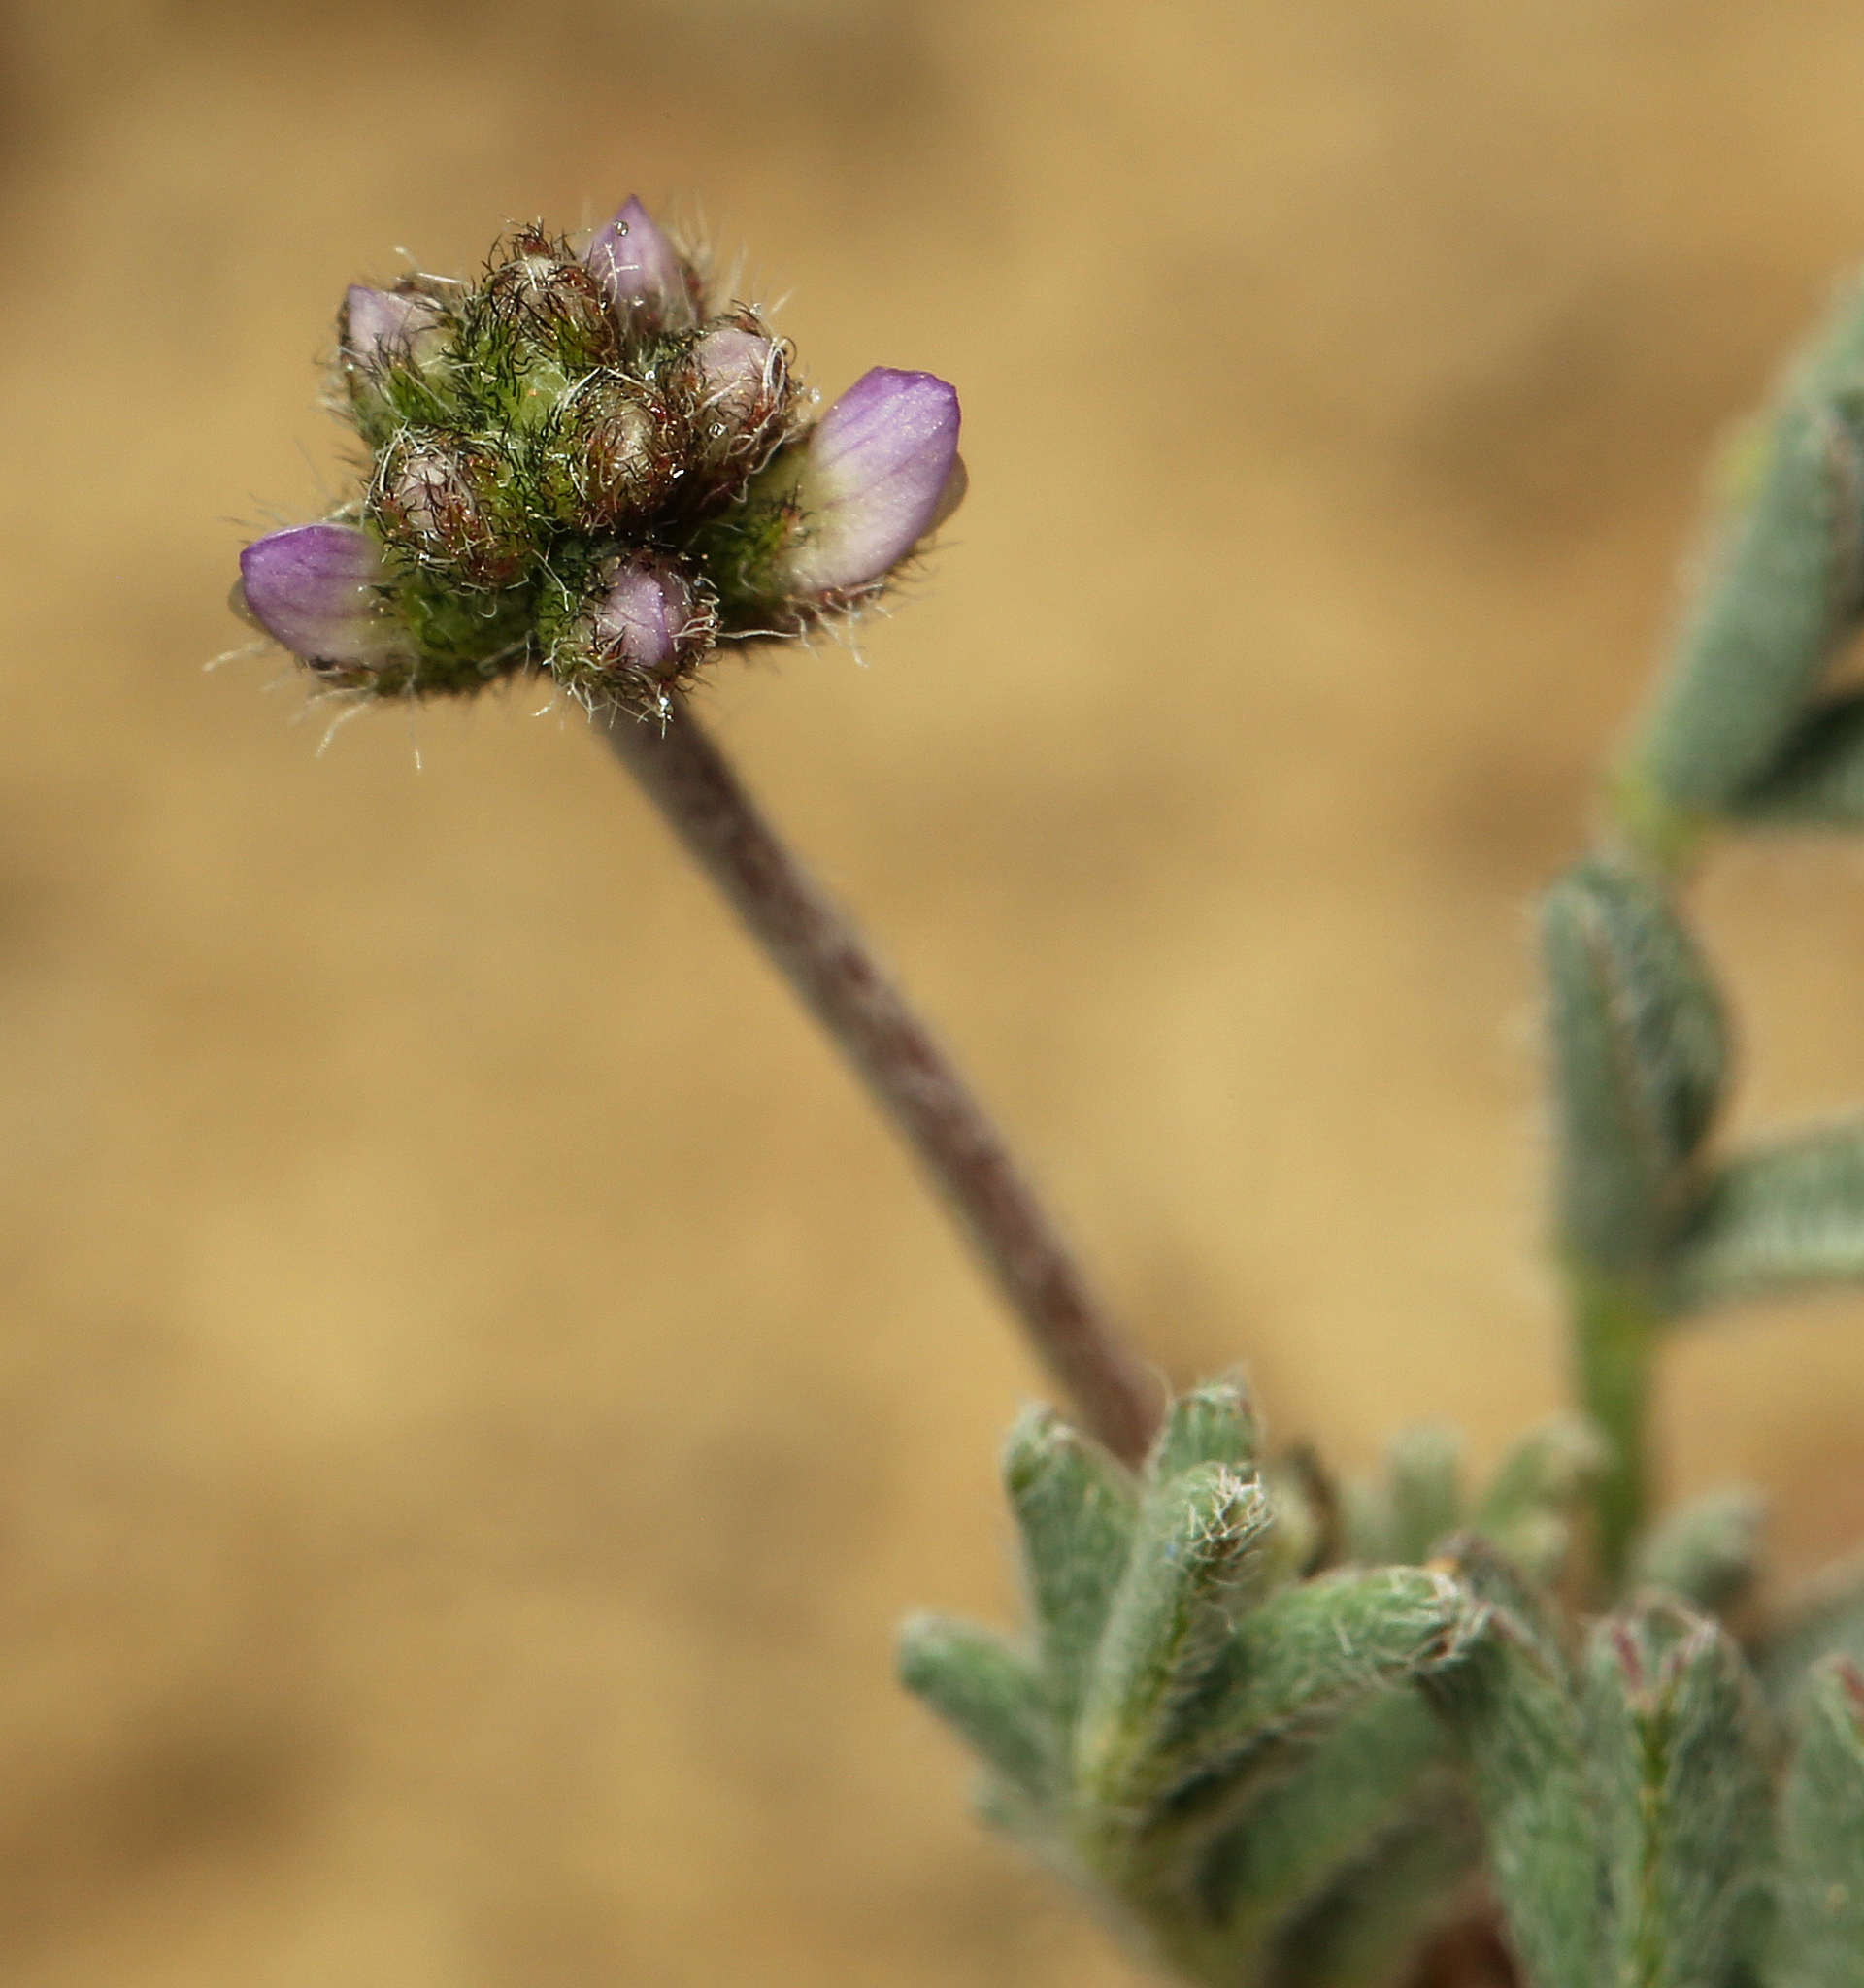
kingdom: Plantae
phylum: Tracheophyta
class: Magnoliopsida
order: Fabales
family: Fabaceae
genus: Astragalus
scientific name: Astragalus gambelianus
